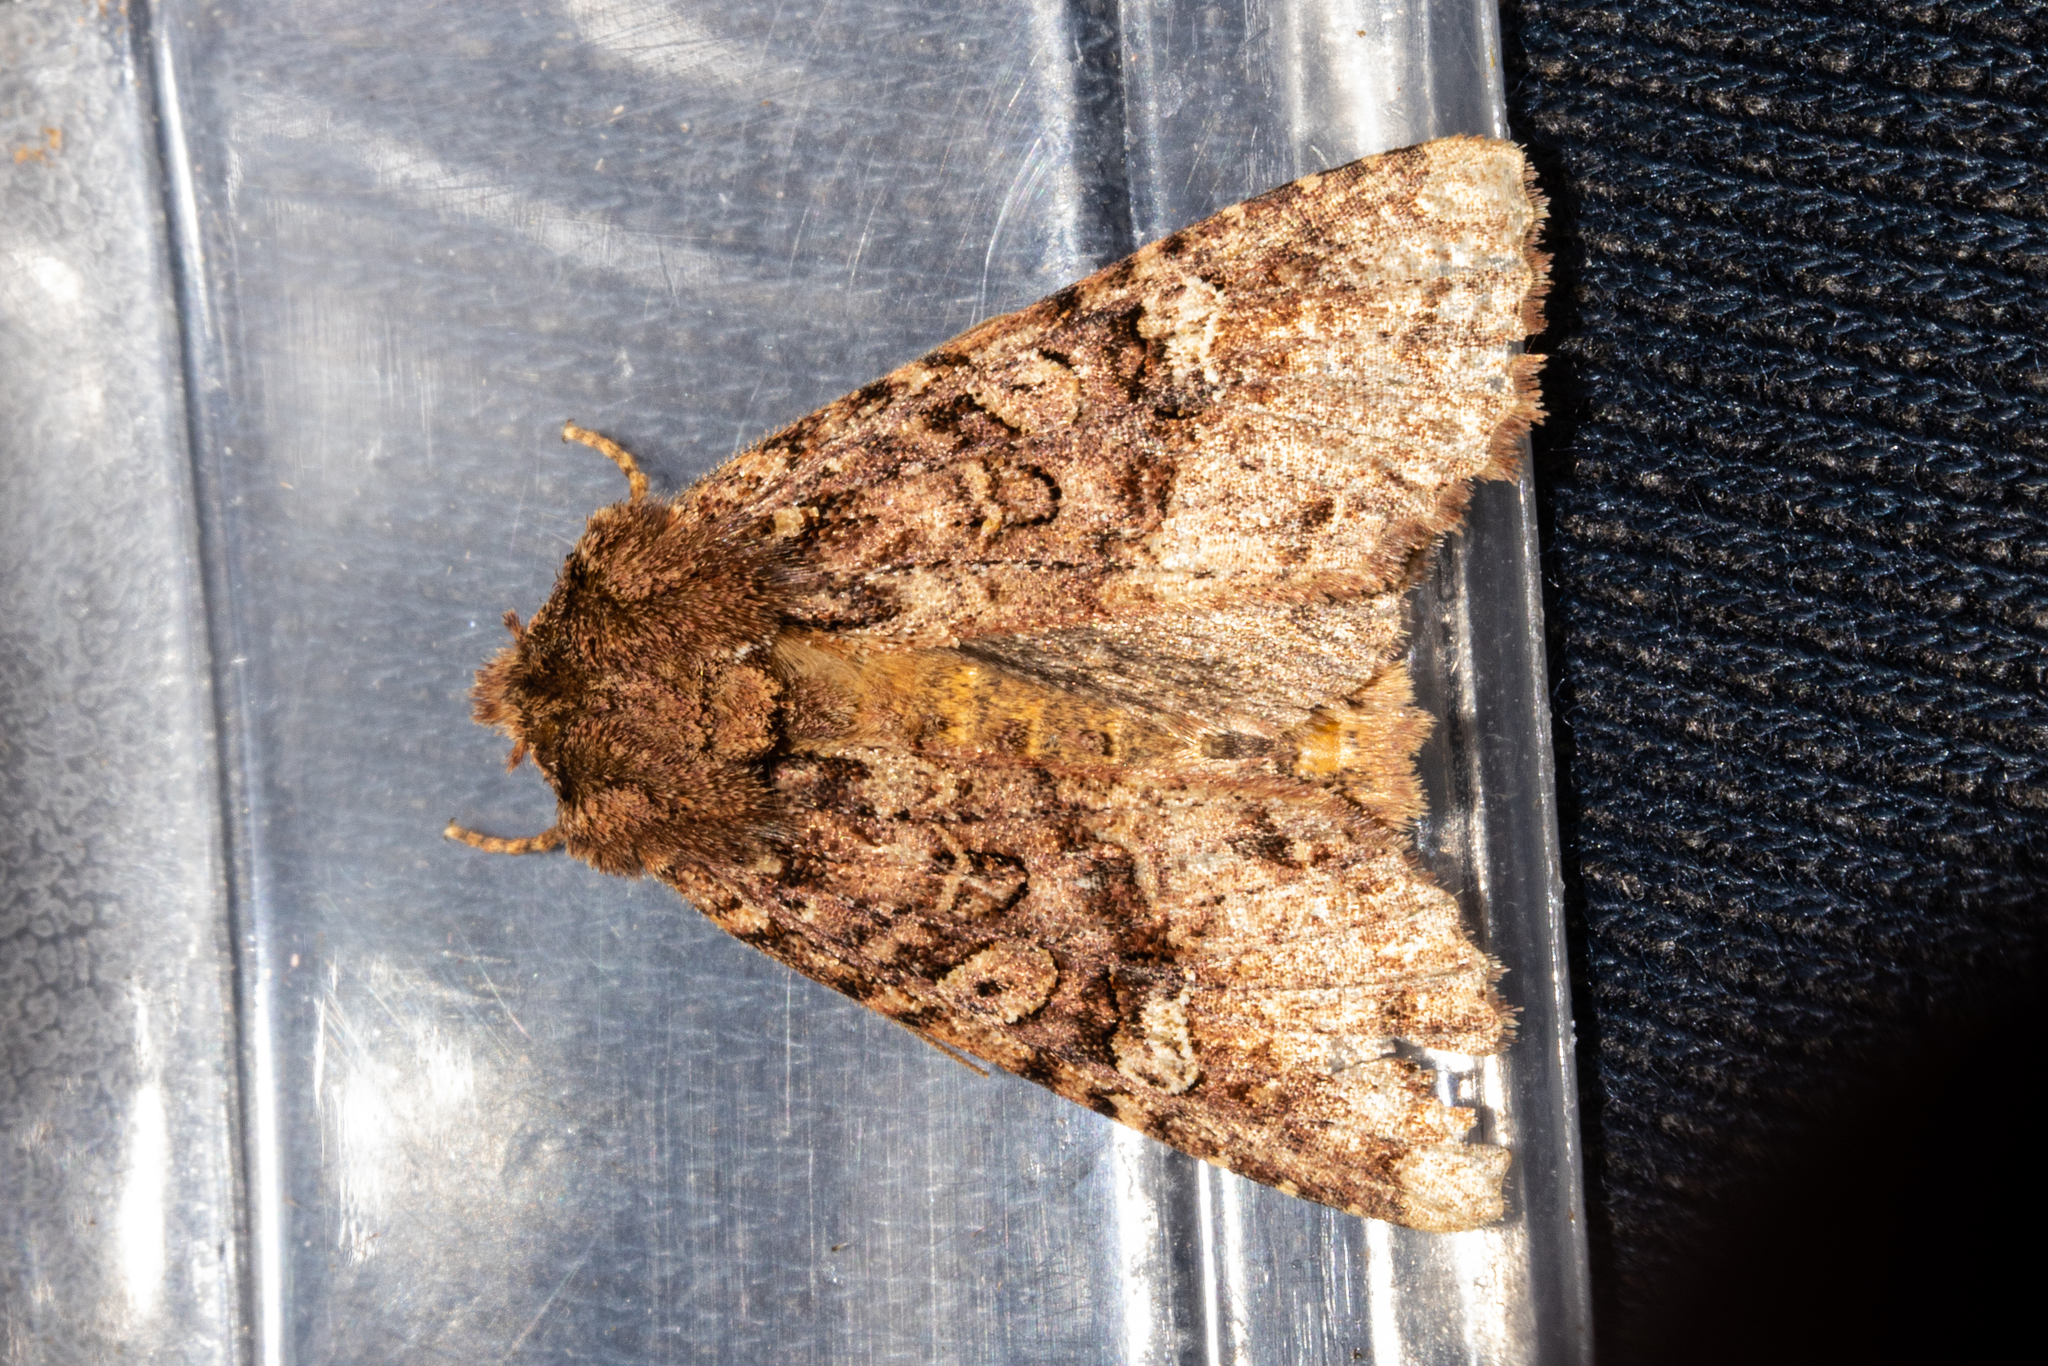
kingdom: Animalia
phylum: Arthropoda
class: Insecta
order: Lepidoptera
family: Noctuidae
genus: Meterana
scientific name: Meterana
